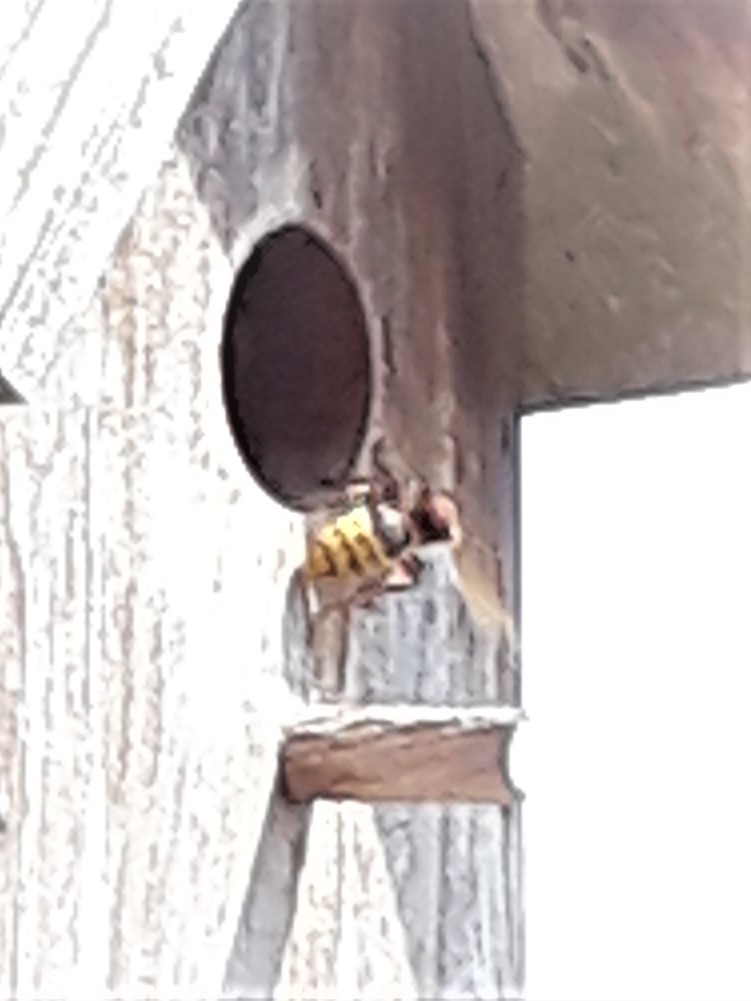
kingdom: Animalia
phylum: Arthropoda
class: Insecta
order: Hymenoptera
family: Vespidae
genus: Vespa
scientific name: Vespa crabro
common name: Hornet
